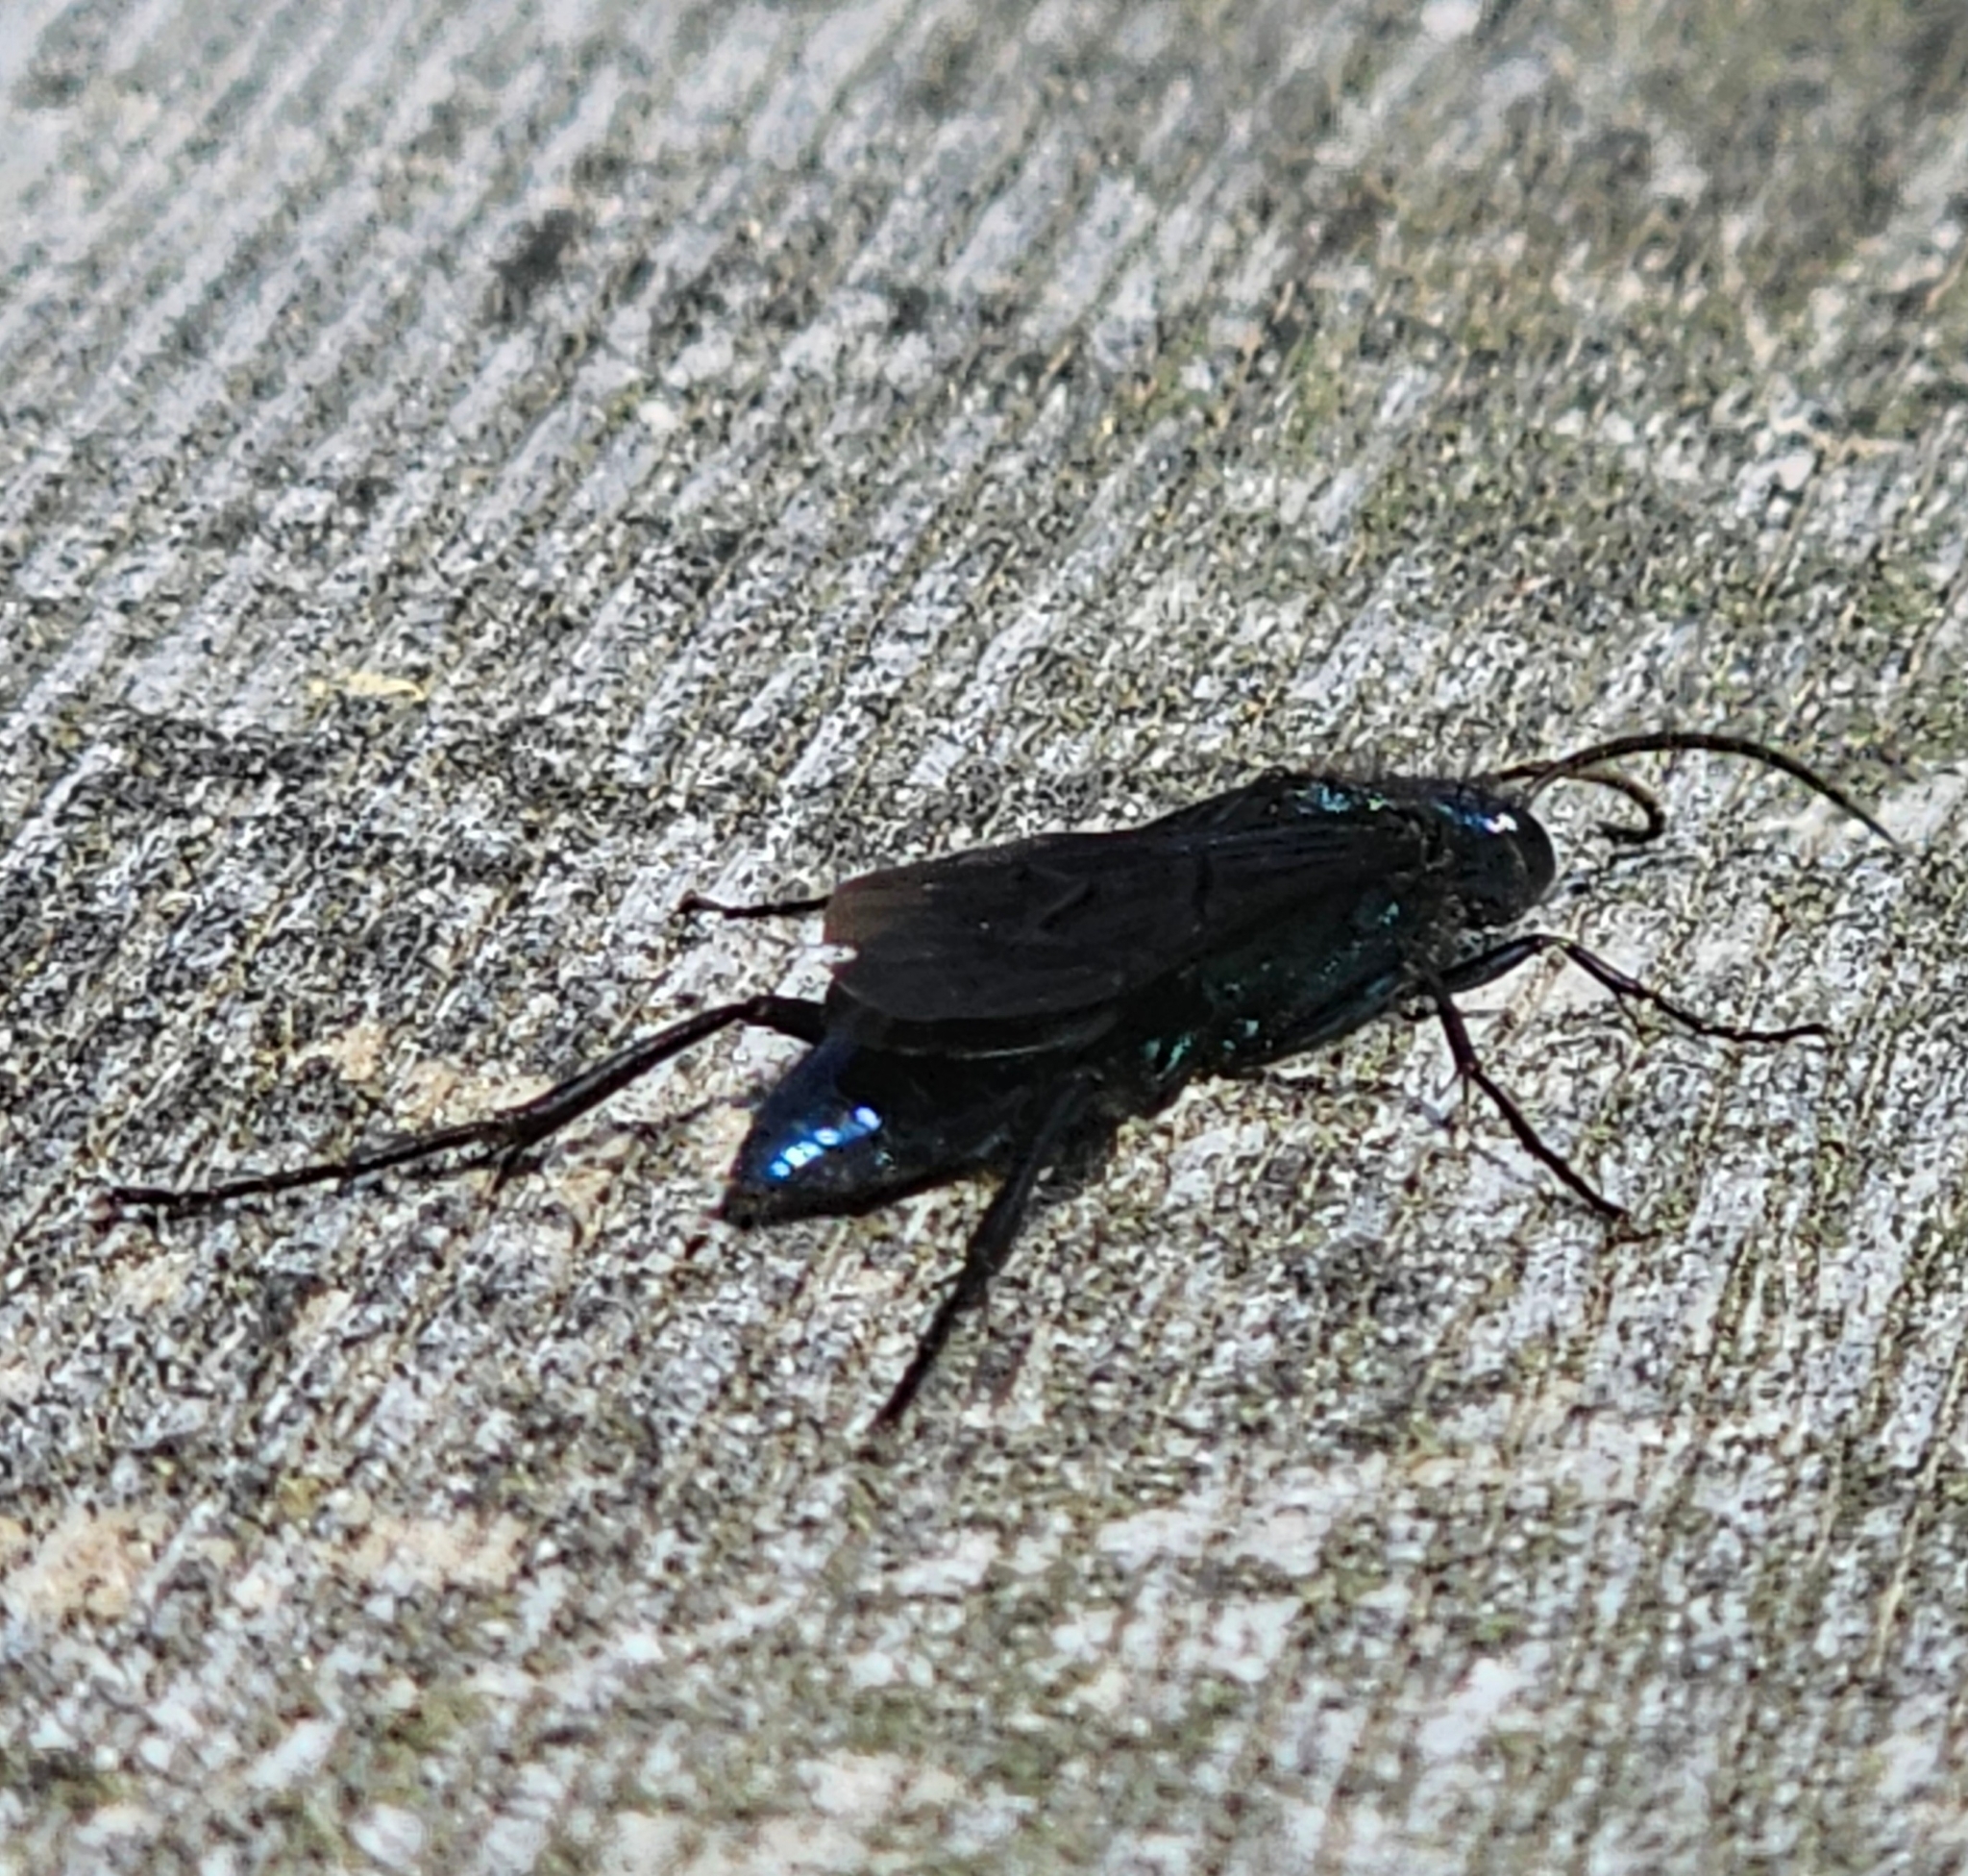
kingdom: Animalia
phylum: Arthropoda
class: Insecta
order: Hymenoptera
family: Sphecidae
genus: Chalybion
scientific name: Chalybion californicum
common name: Mud dauber
